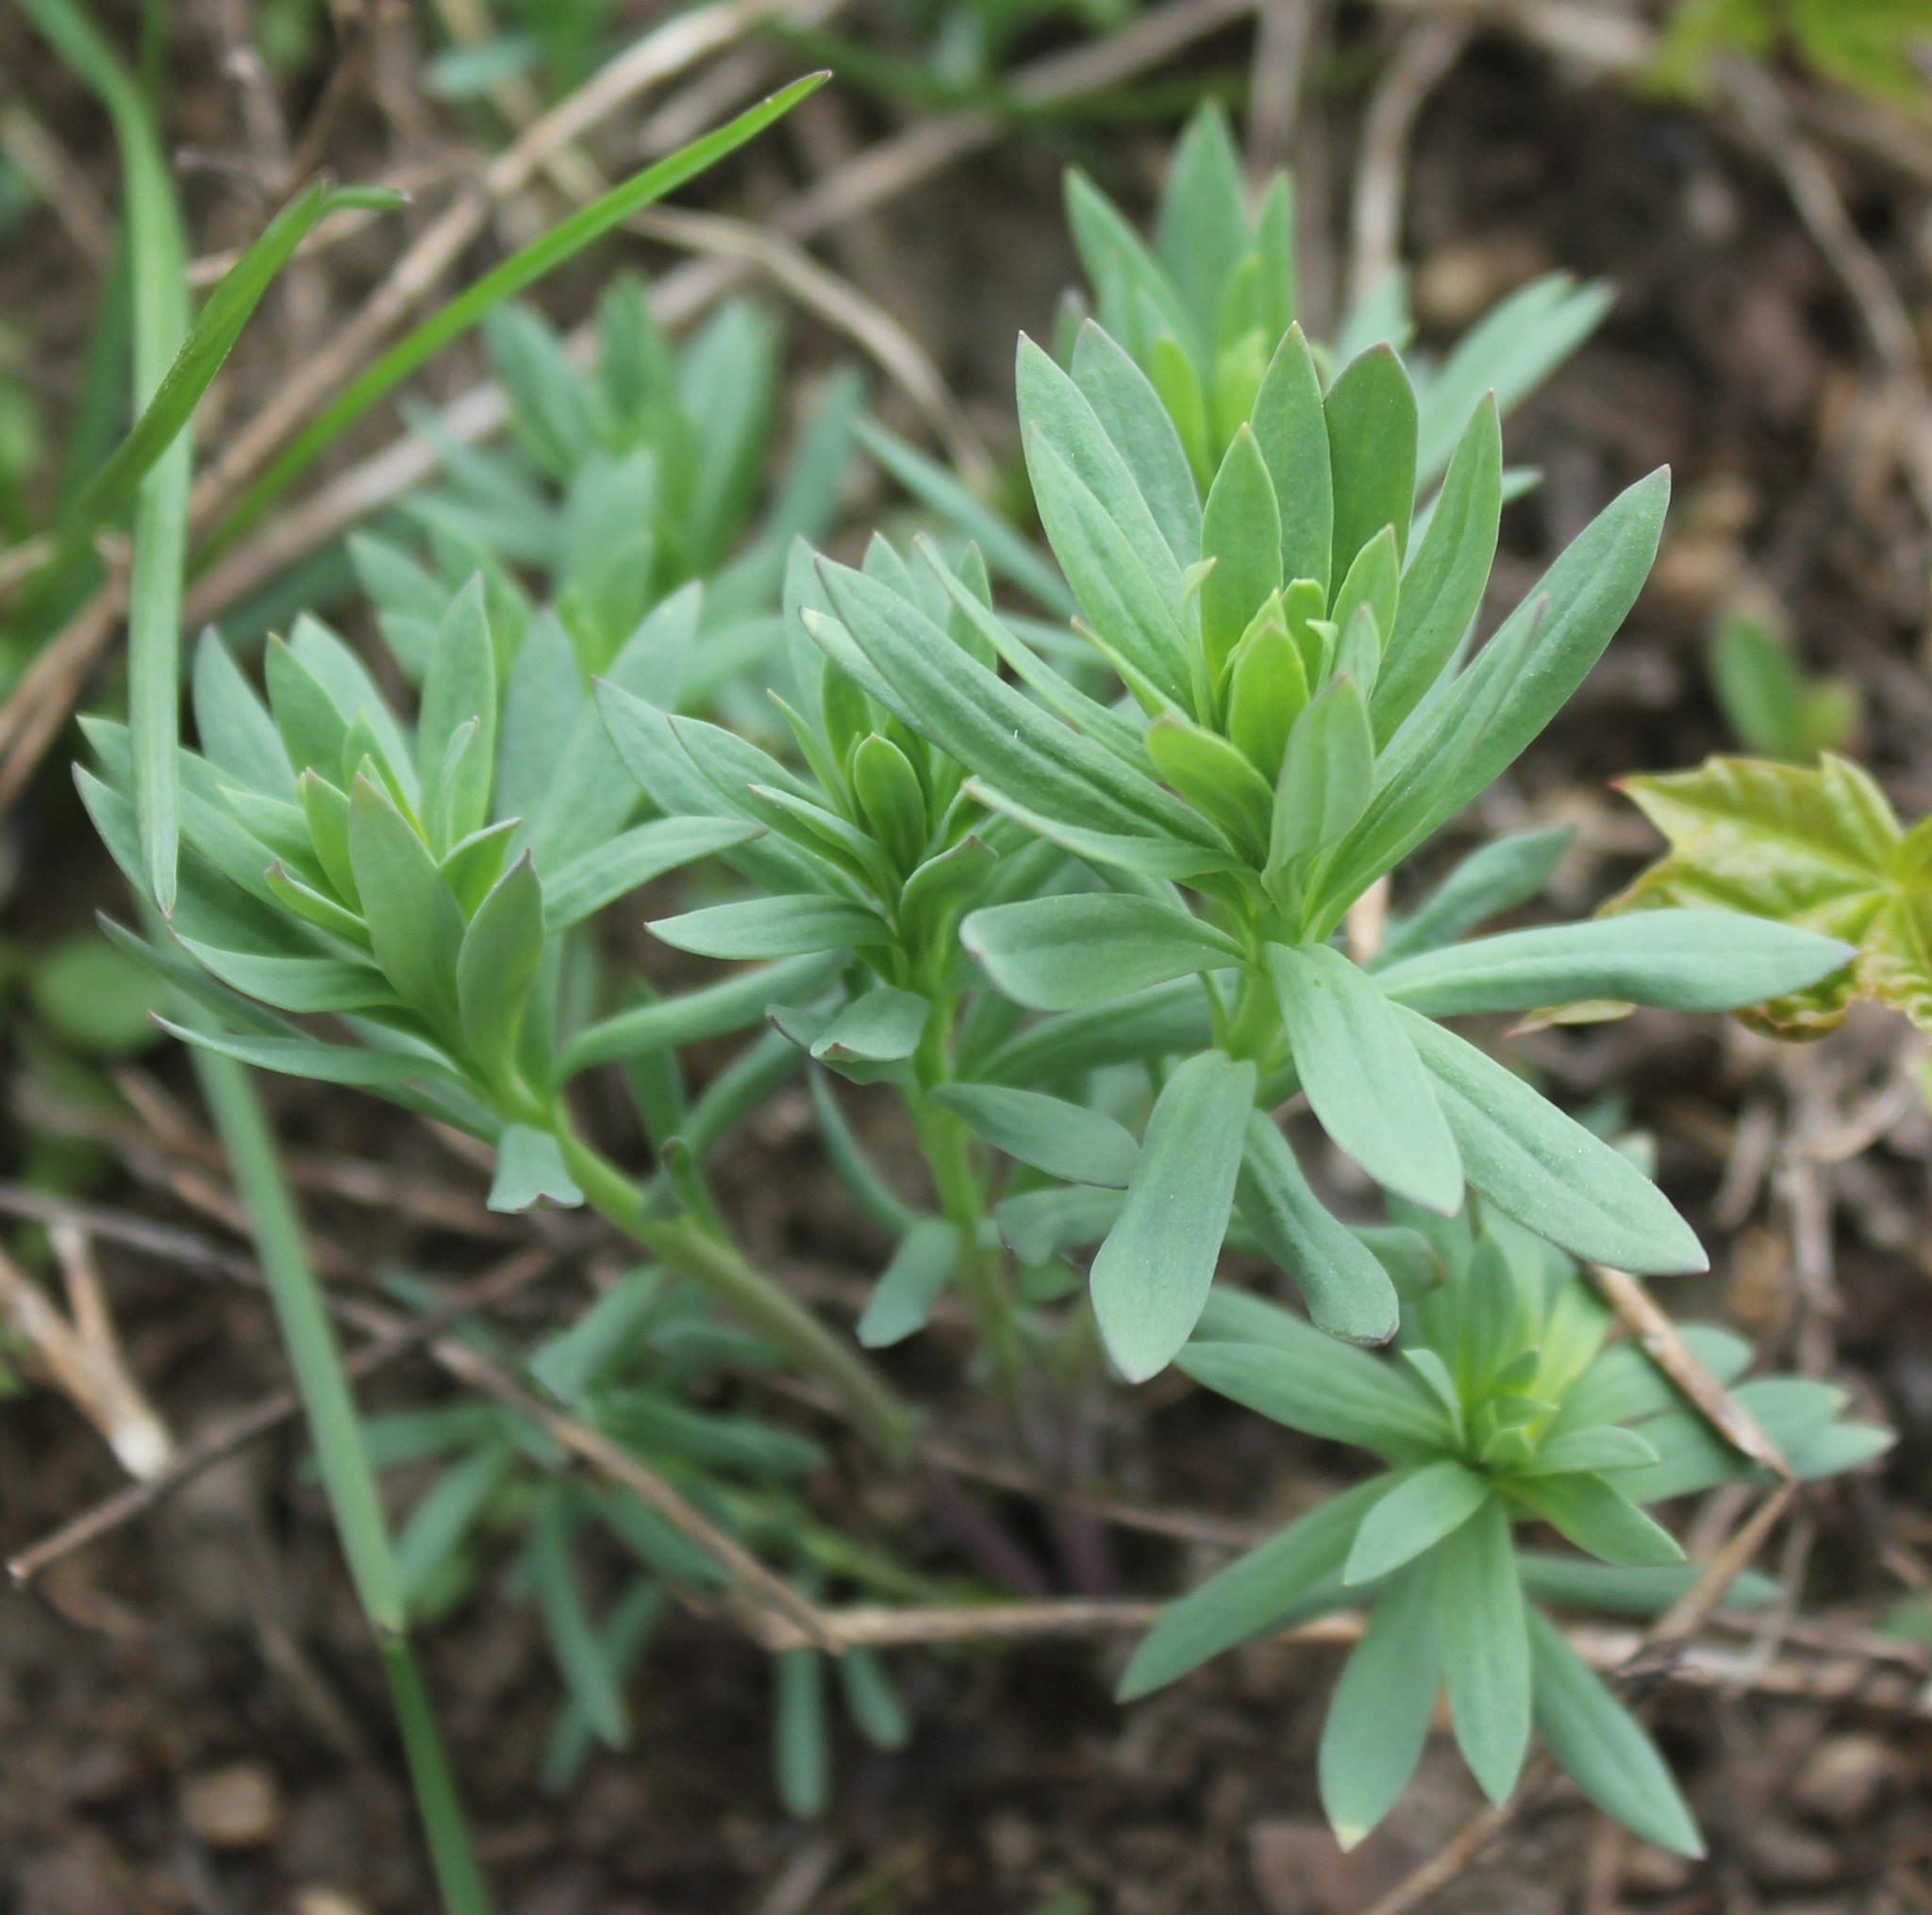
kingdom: Plantae
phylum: Tracheophyta
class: Magnoliopsida
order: Gentianales
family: Rubiaceae
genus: Galium
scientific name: Galium mollugo
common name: Hedge bedstraw
